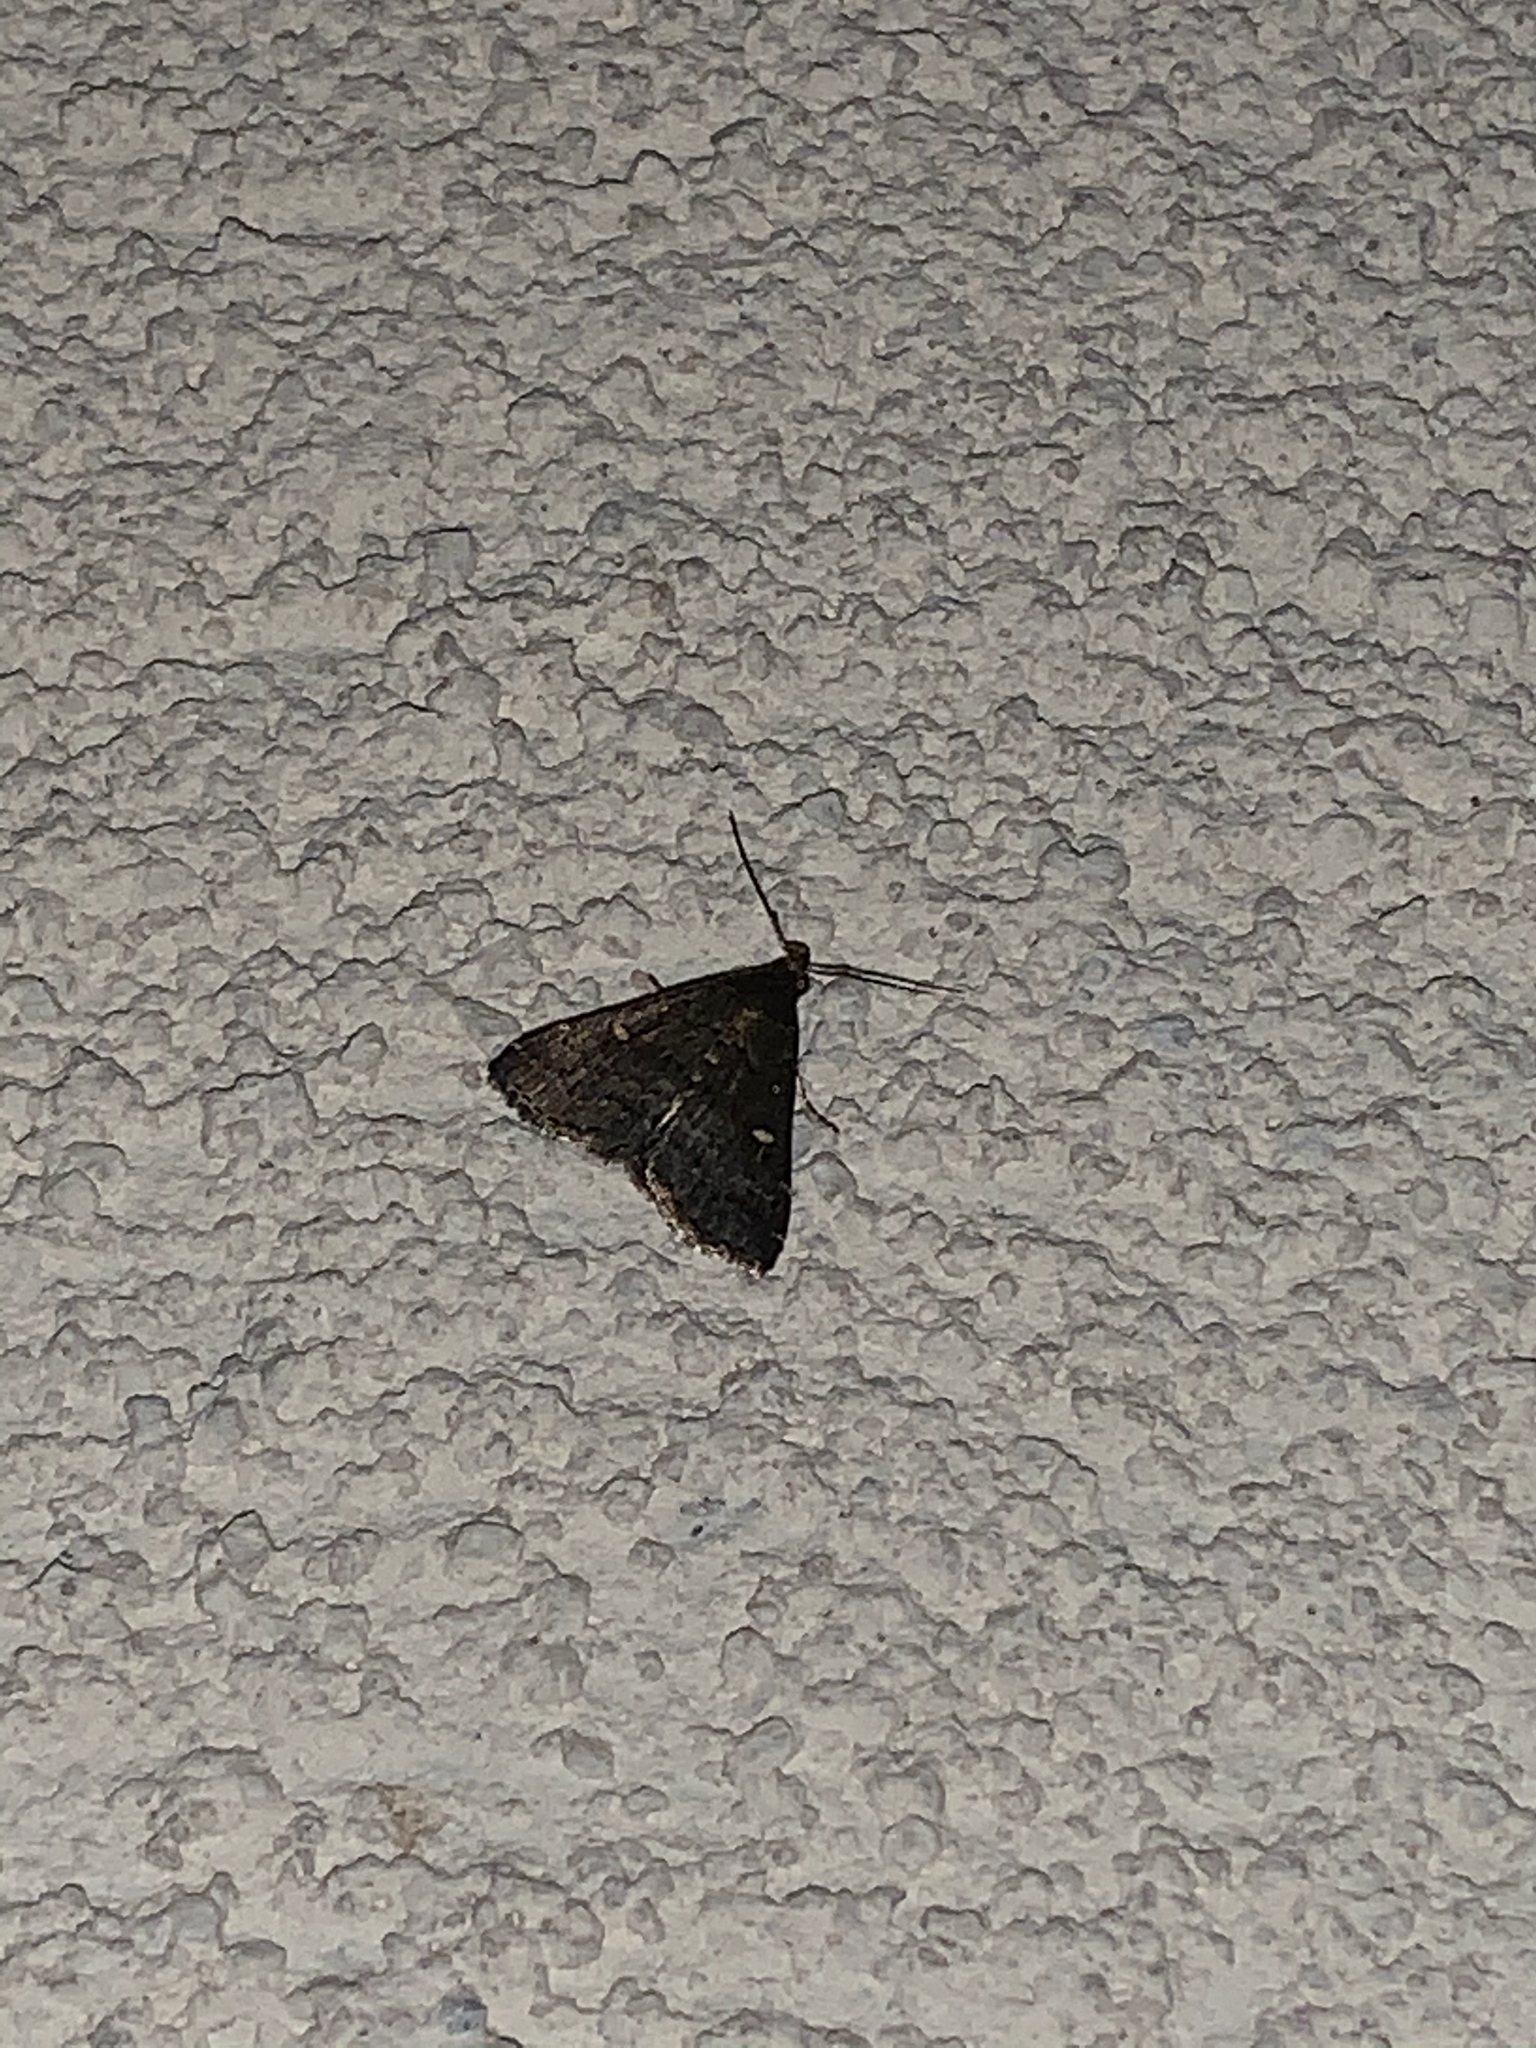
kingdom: Animalia
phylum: Arthropoda
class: Insecta
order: Lepidoptera
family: Erebidae
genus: Tetanolita
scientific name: Tetanolita mynesalis
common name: Smoky tetanolita moth
